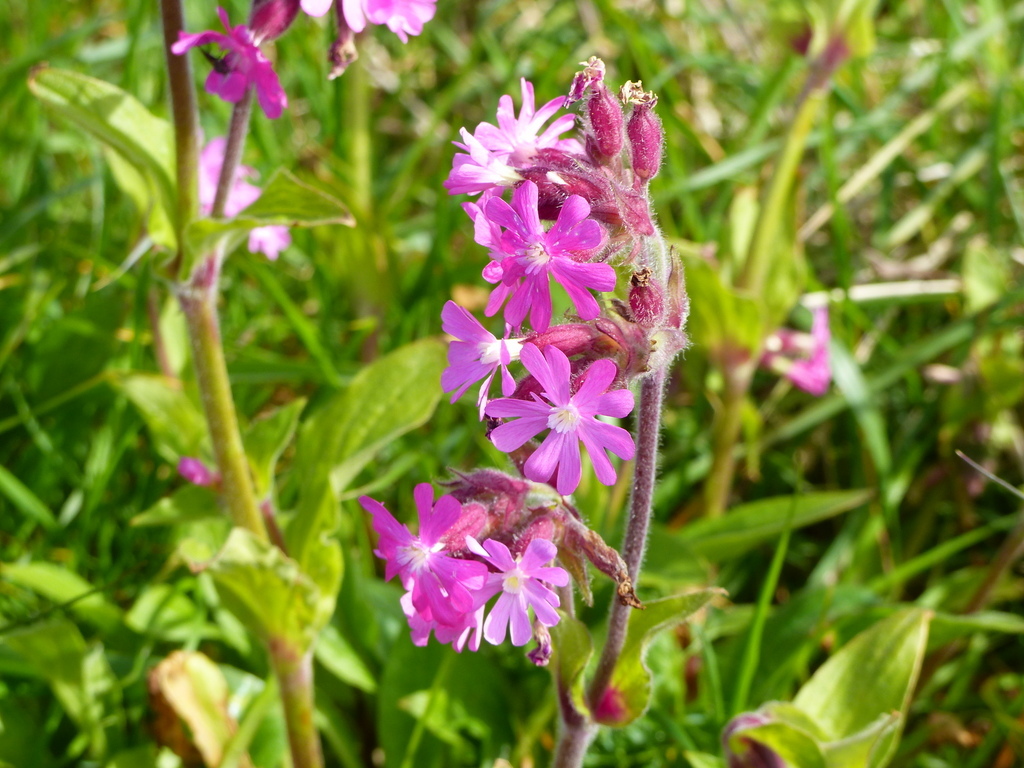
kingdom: Plantae
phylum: Tracheophyta
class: Magnoliopsida
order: Caryophyllales
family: Caryophyllaceae
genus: Silene
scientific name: Silene dioica
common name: Red campion
